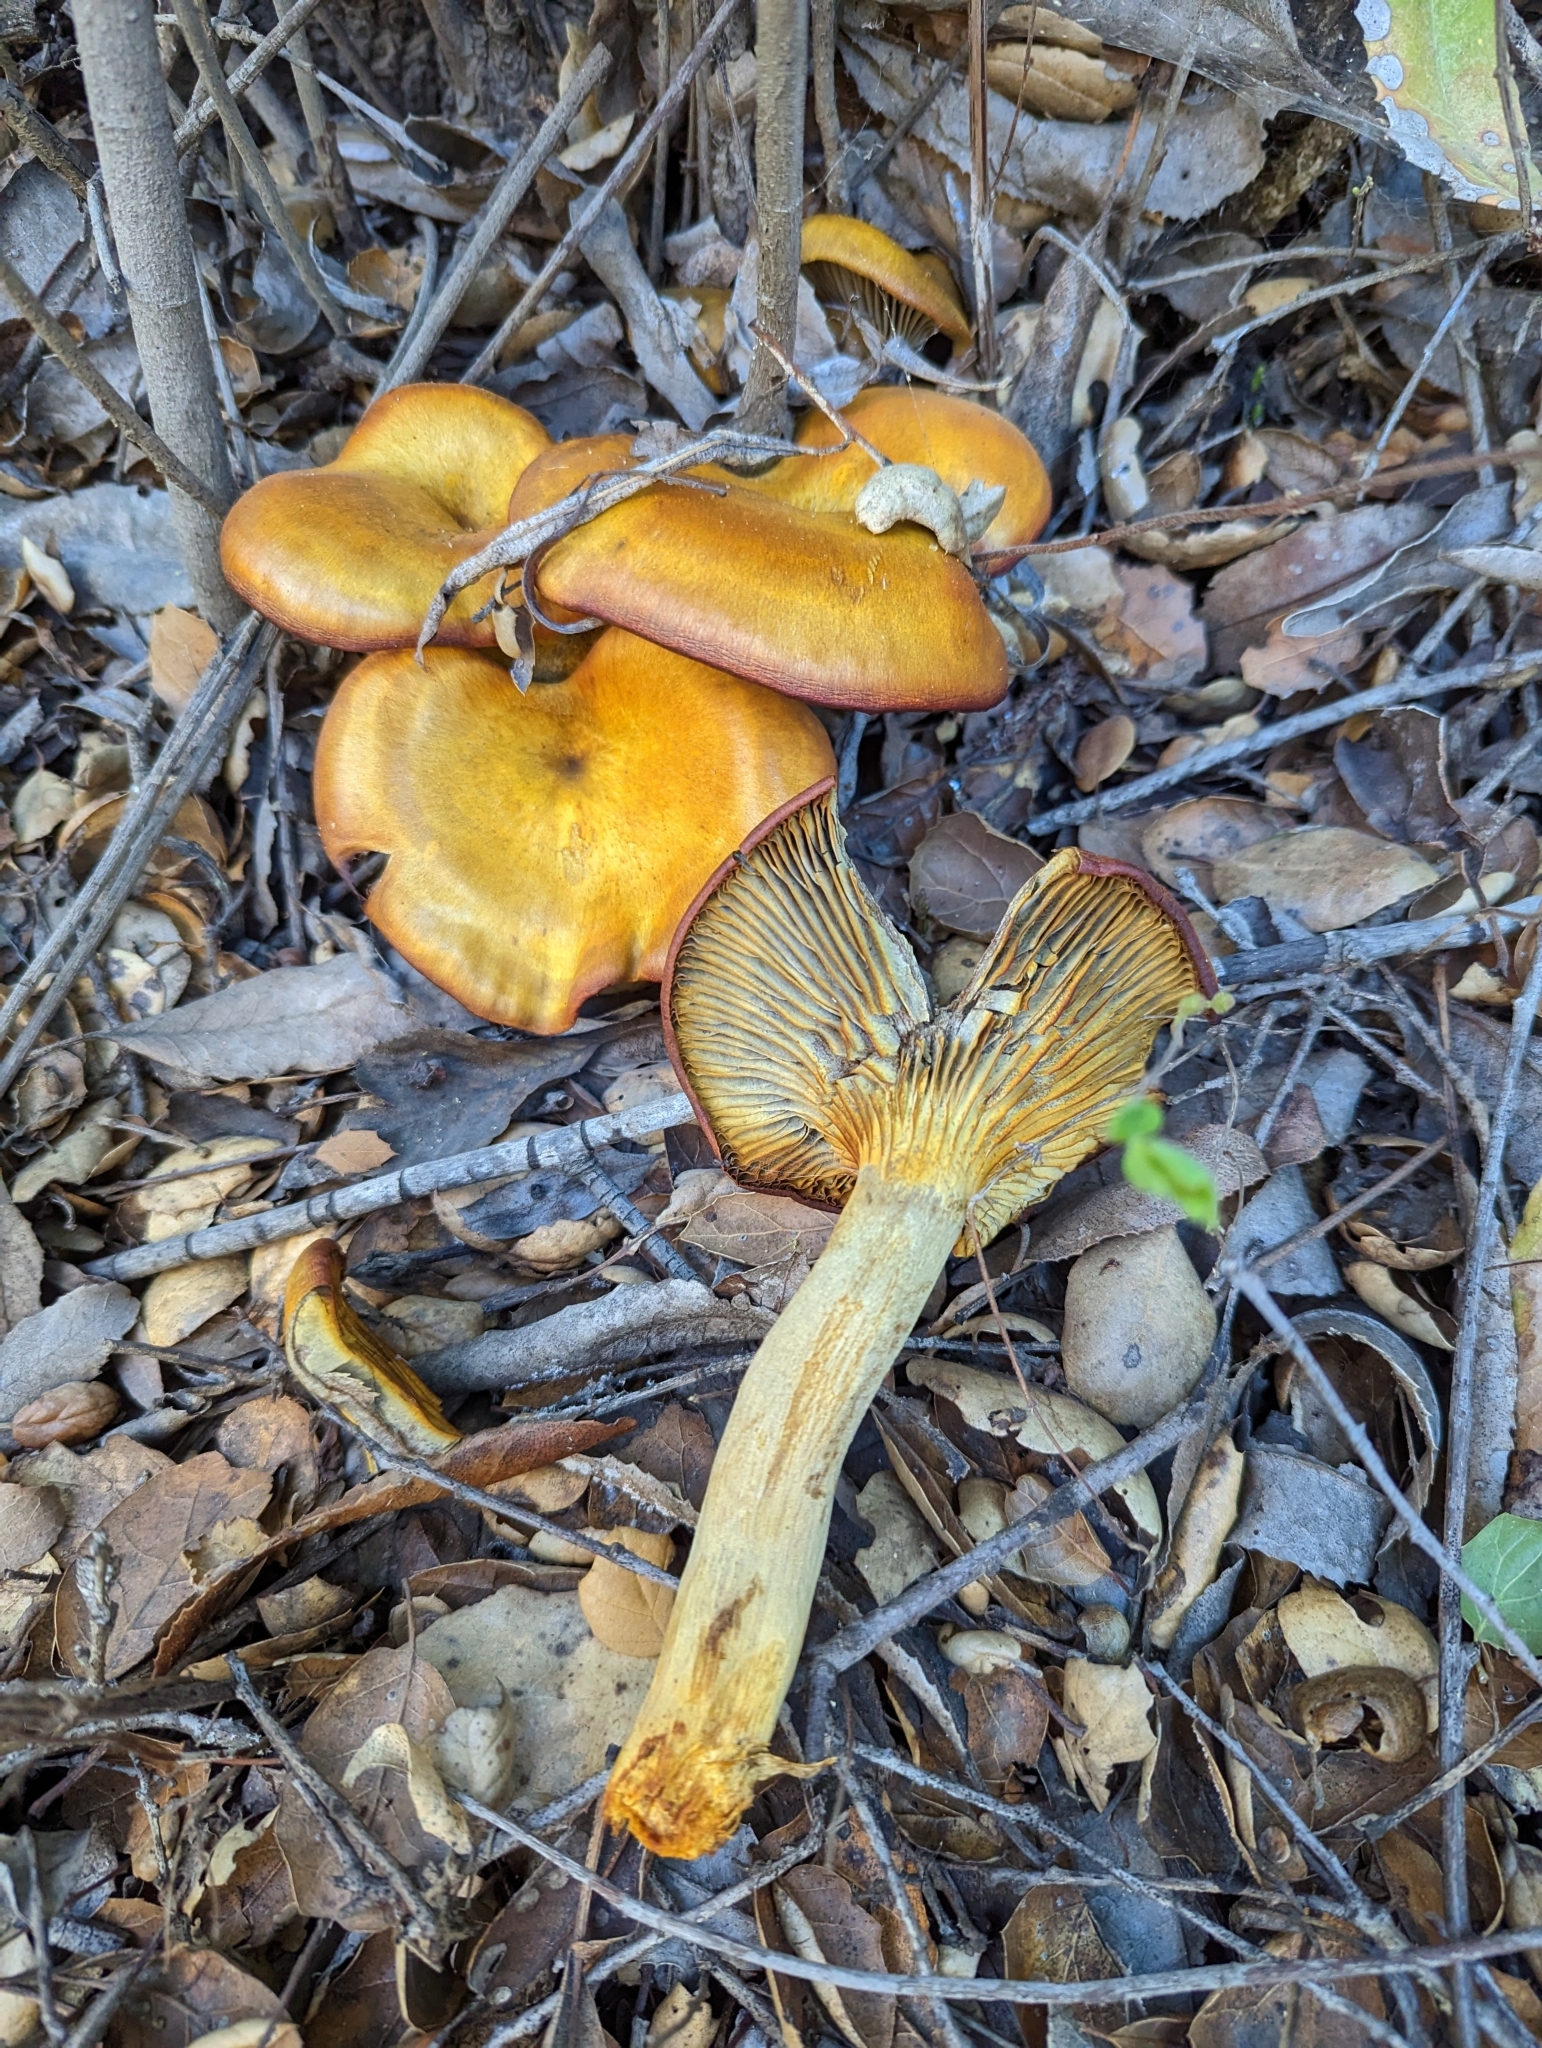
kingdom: Fungi
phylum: Basidiomycota
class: Agaricomycetes
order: Agaricales
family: Omphalotaceae
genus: Omphalotus
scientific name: Omphalotus olivascens
